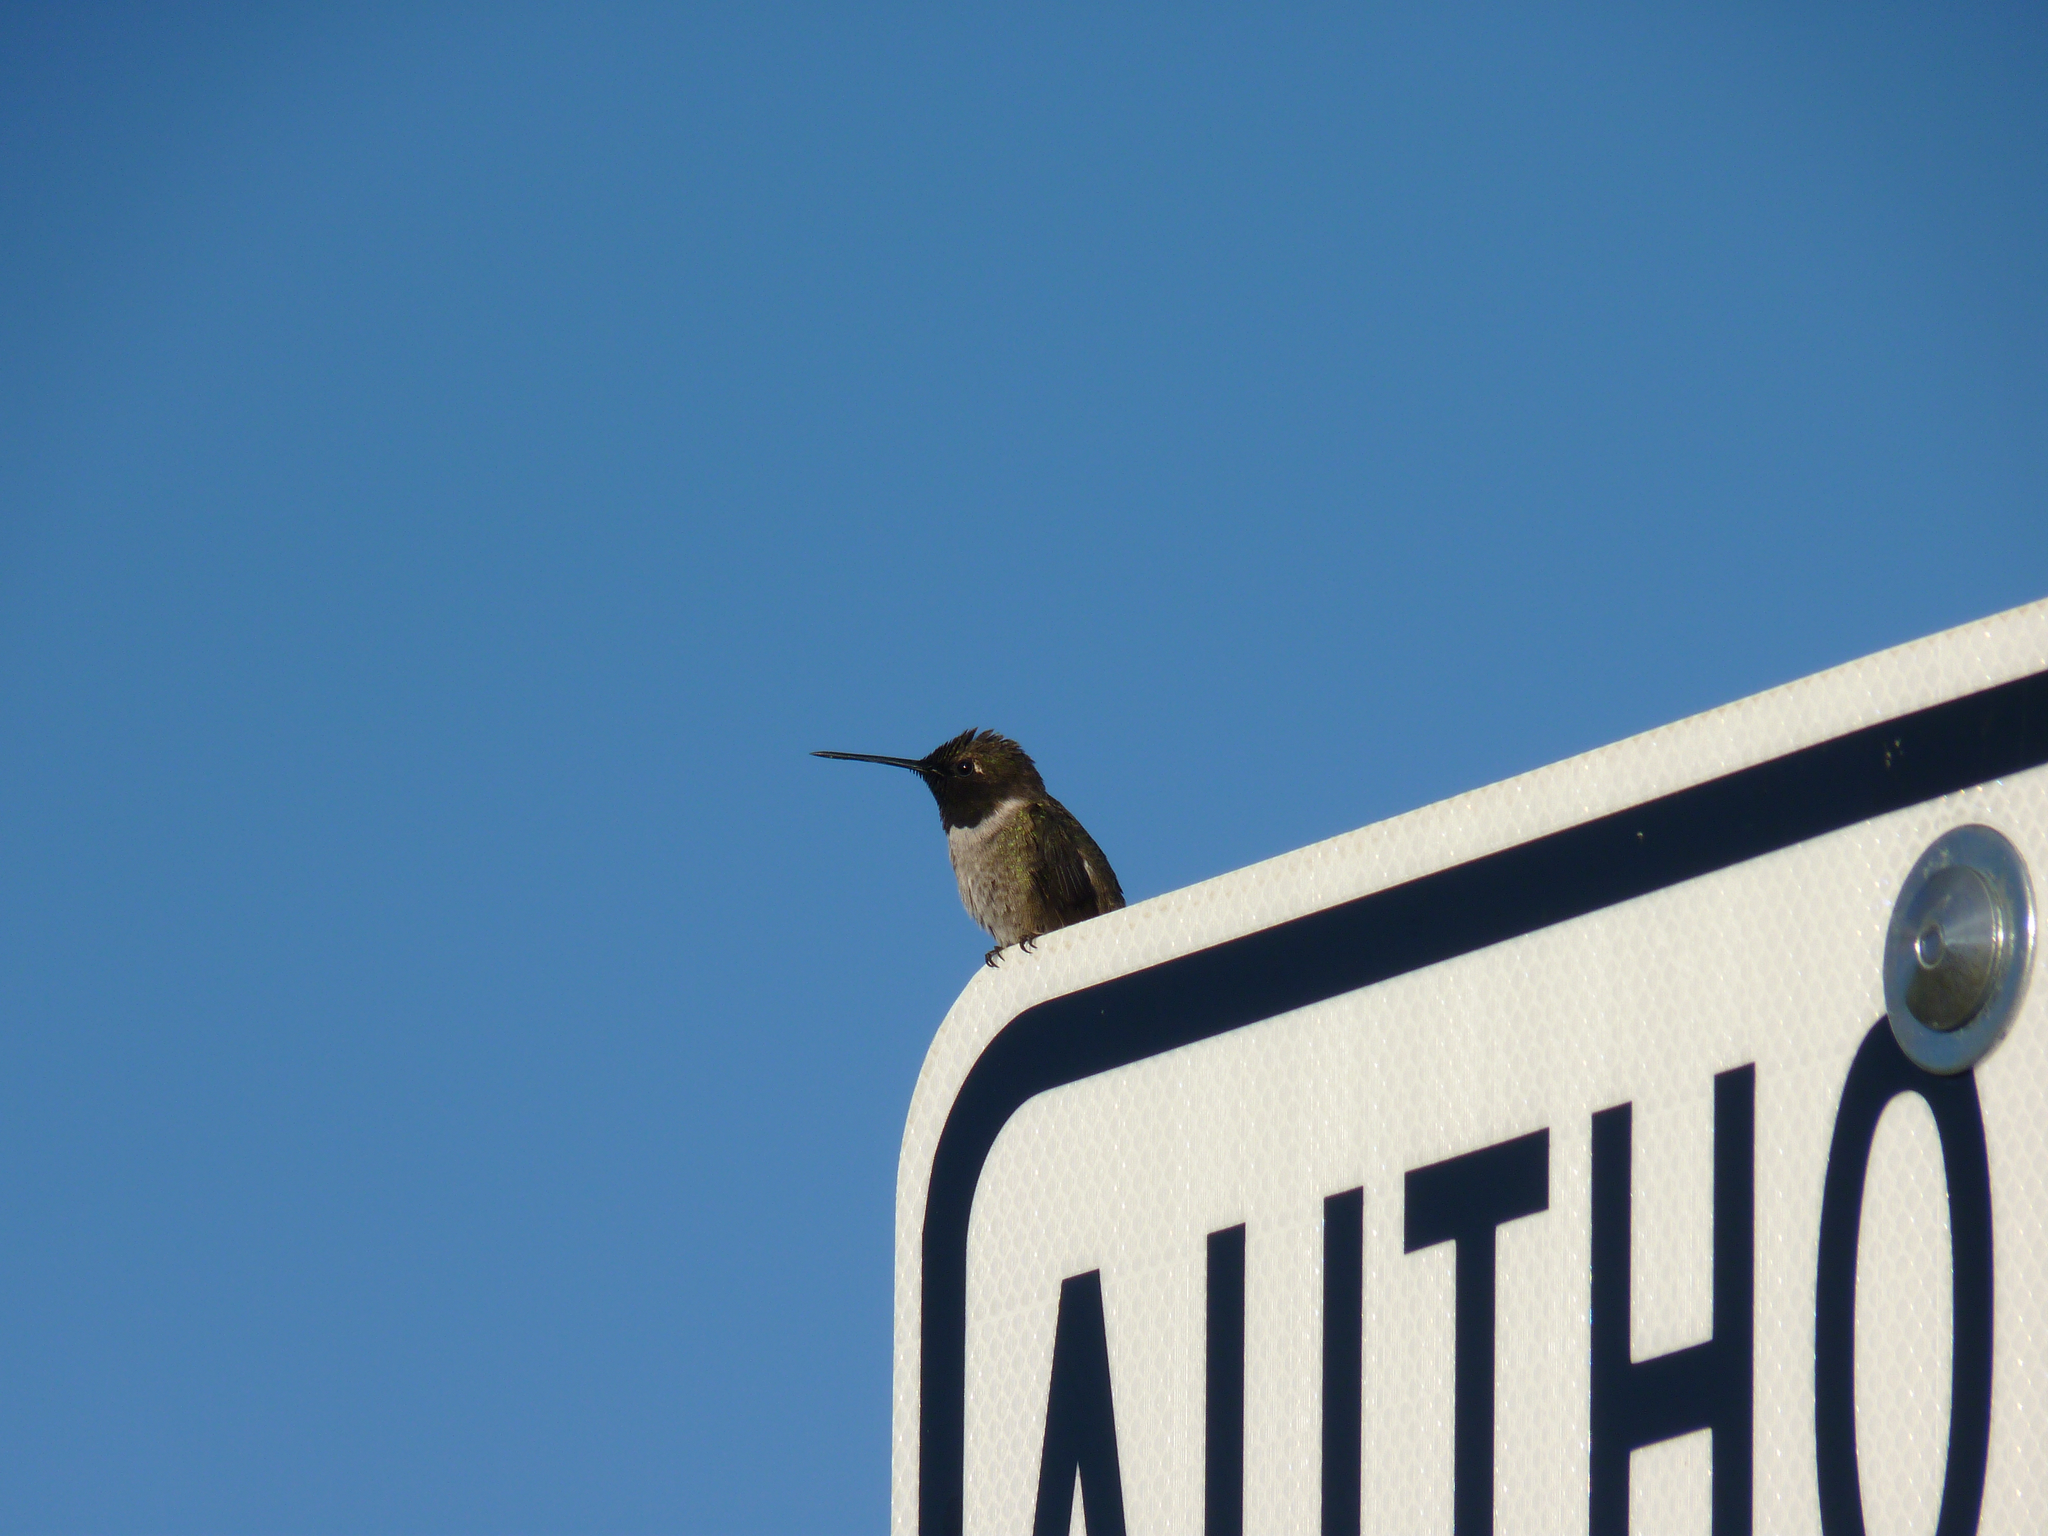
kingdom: Animalia
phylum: Chordata
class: Aves
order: Apodiformes
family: Trochilidae
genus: Archilochus
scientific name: Archilochus alexandri
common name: Black-chinned hummingbird
